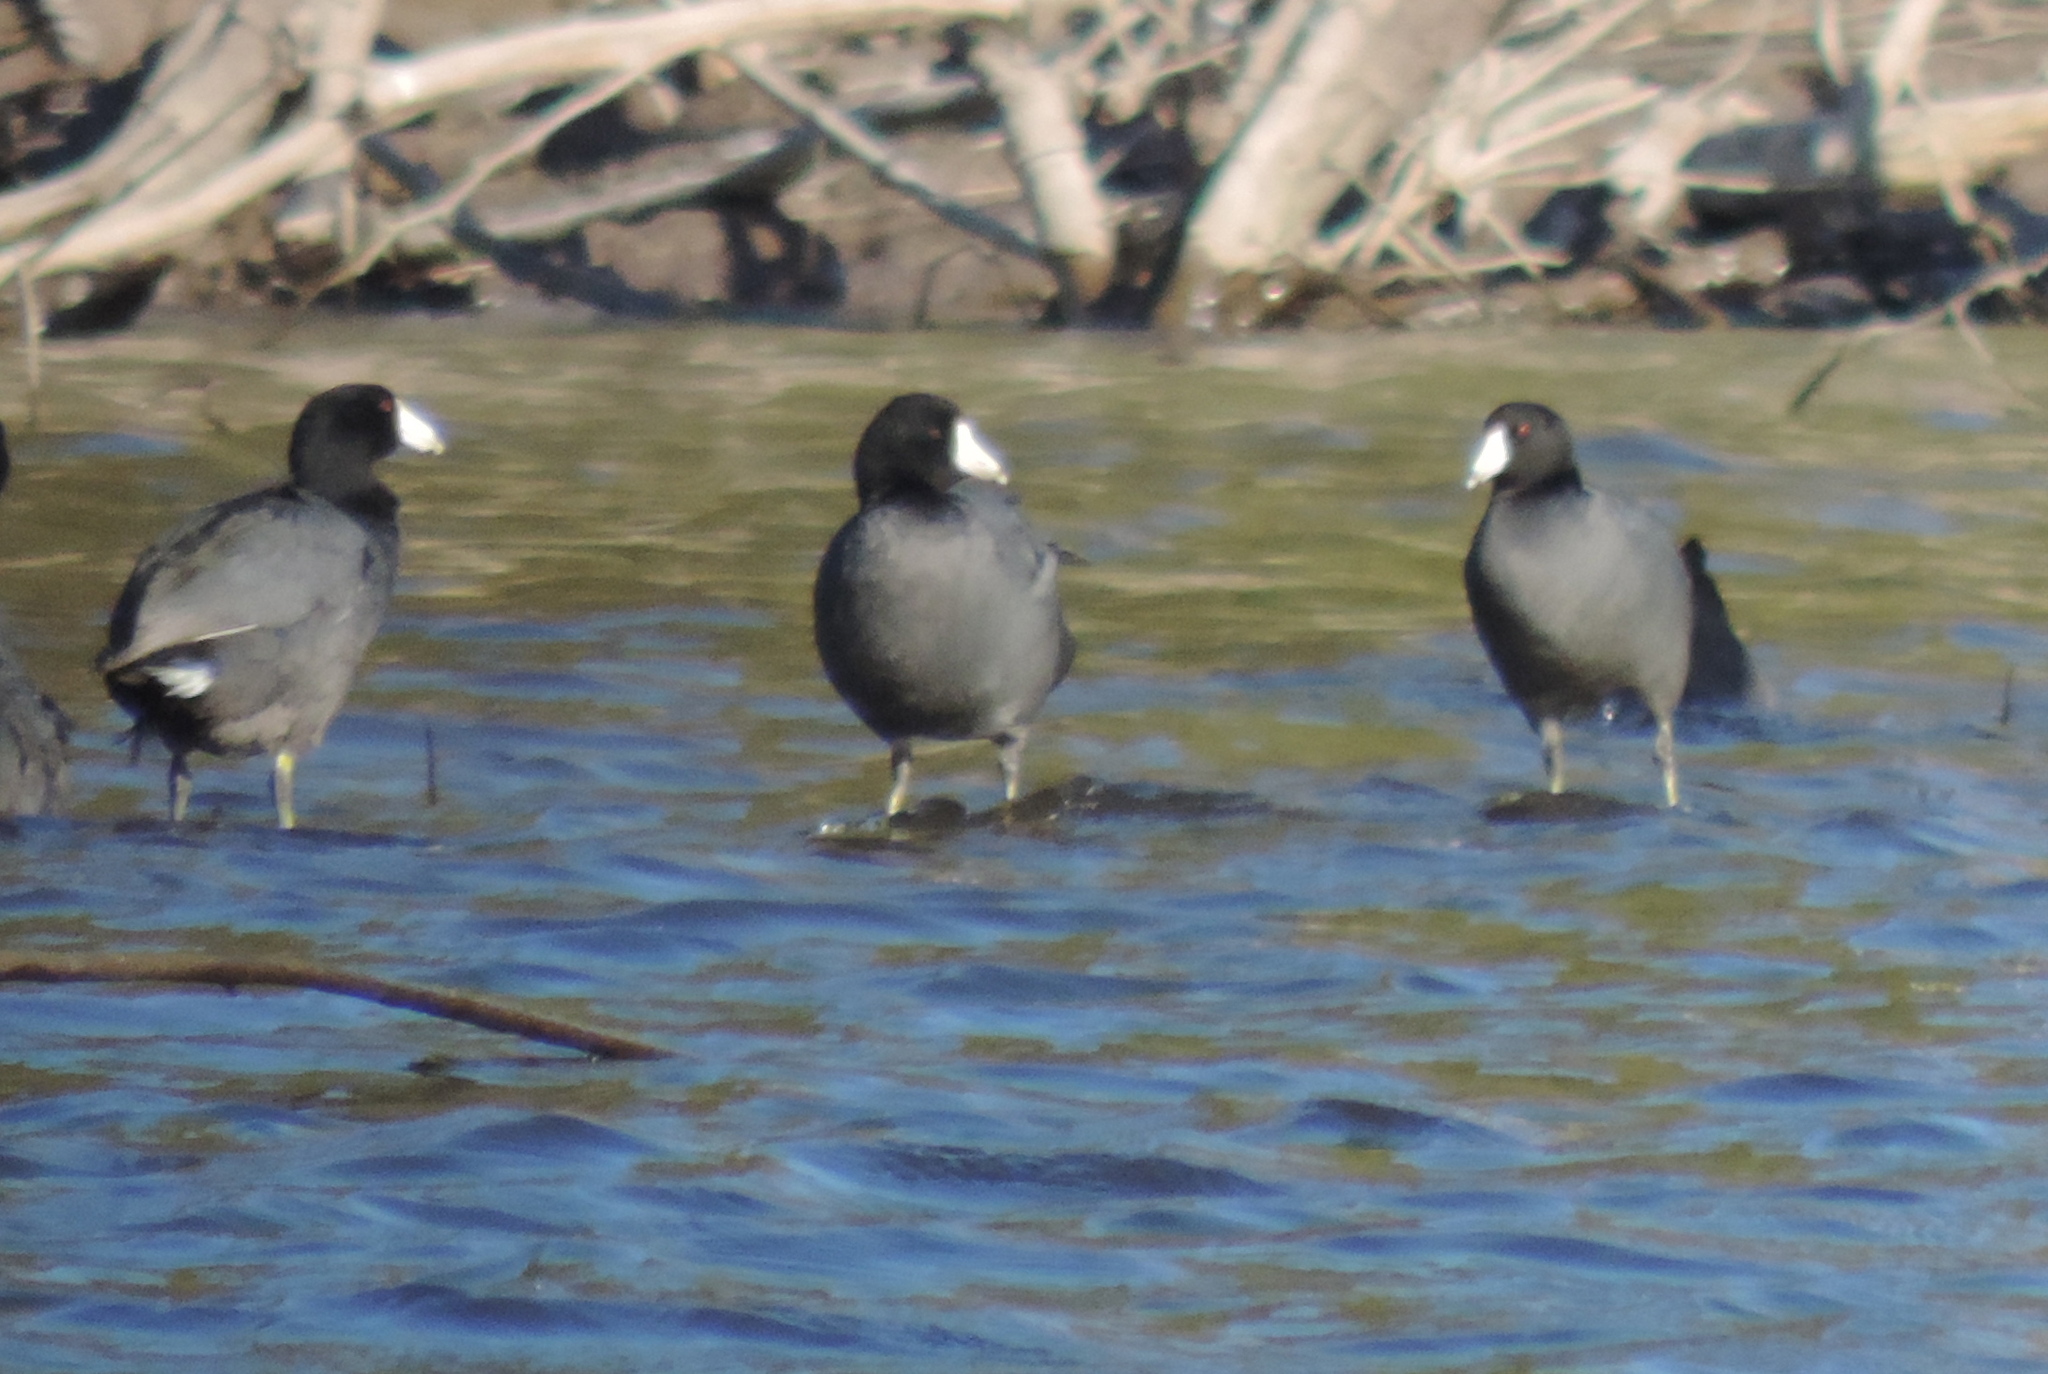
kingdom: Animalia
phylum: Chordata
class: Aves
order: Gruiformes
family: Rallidae
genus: Fulica
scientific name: Fulica americana
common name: American coot
